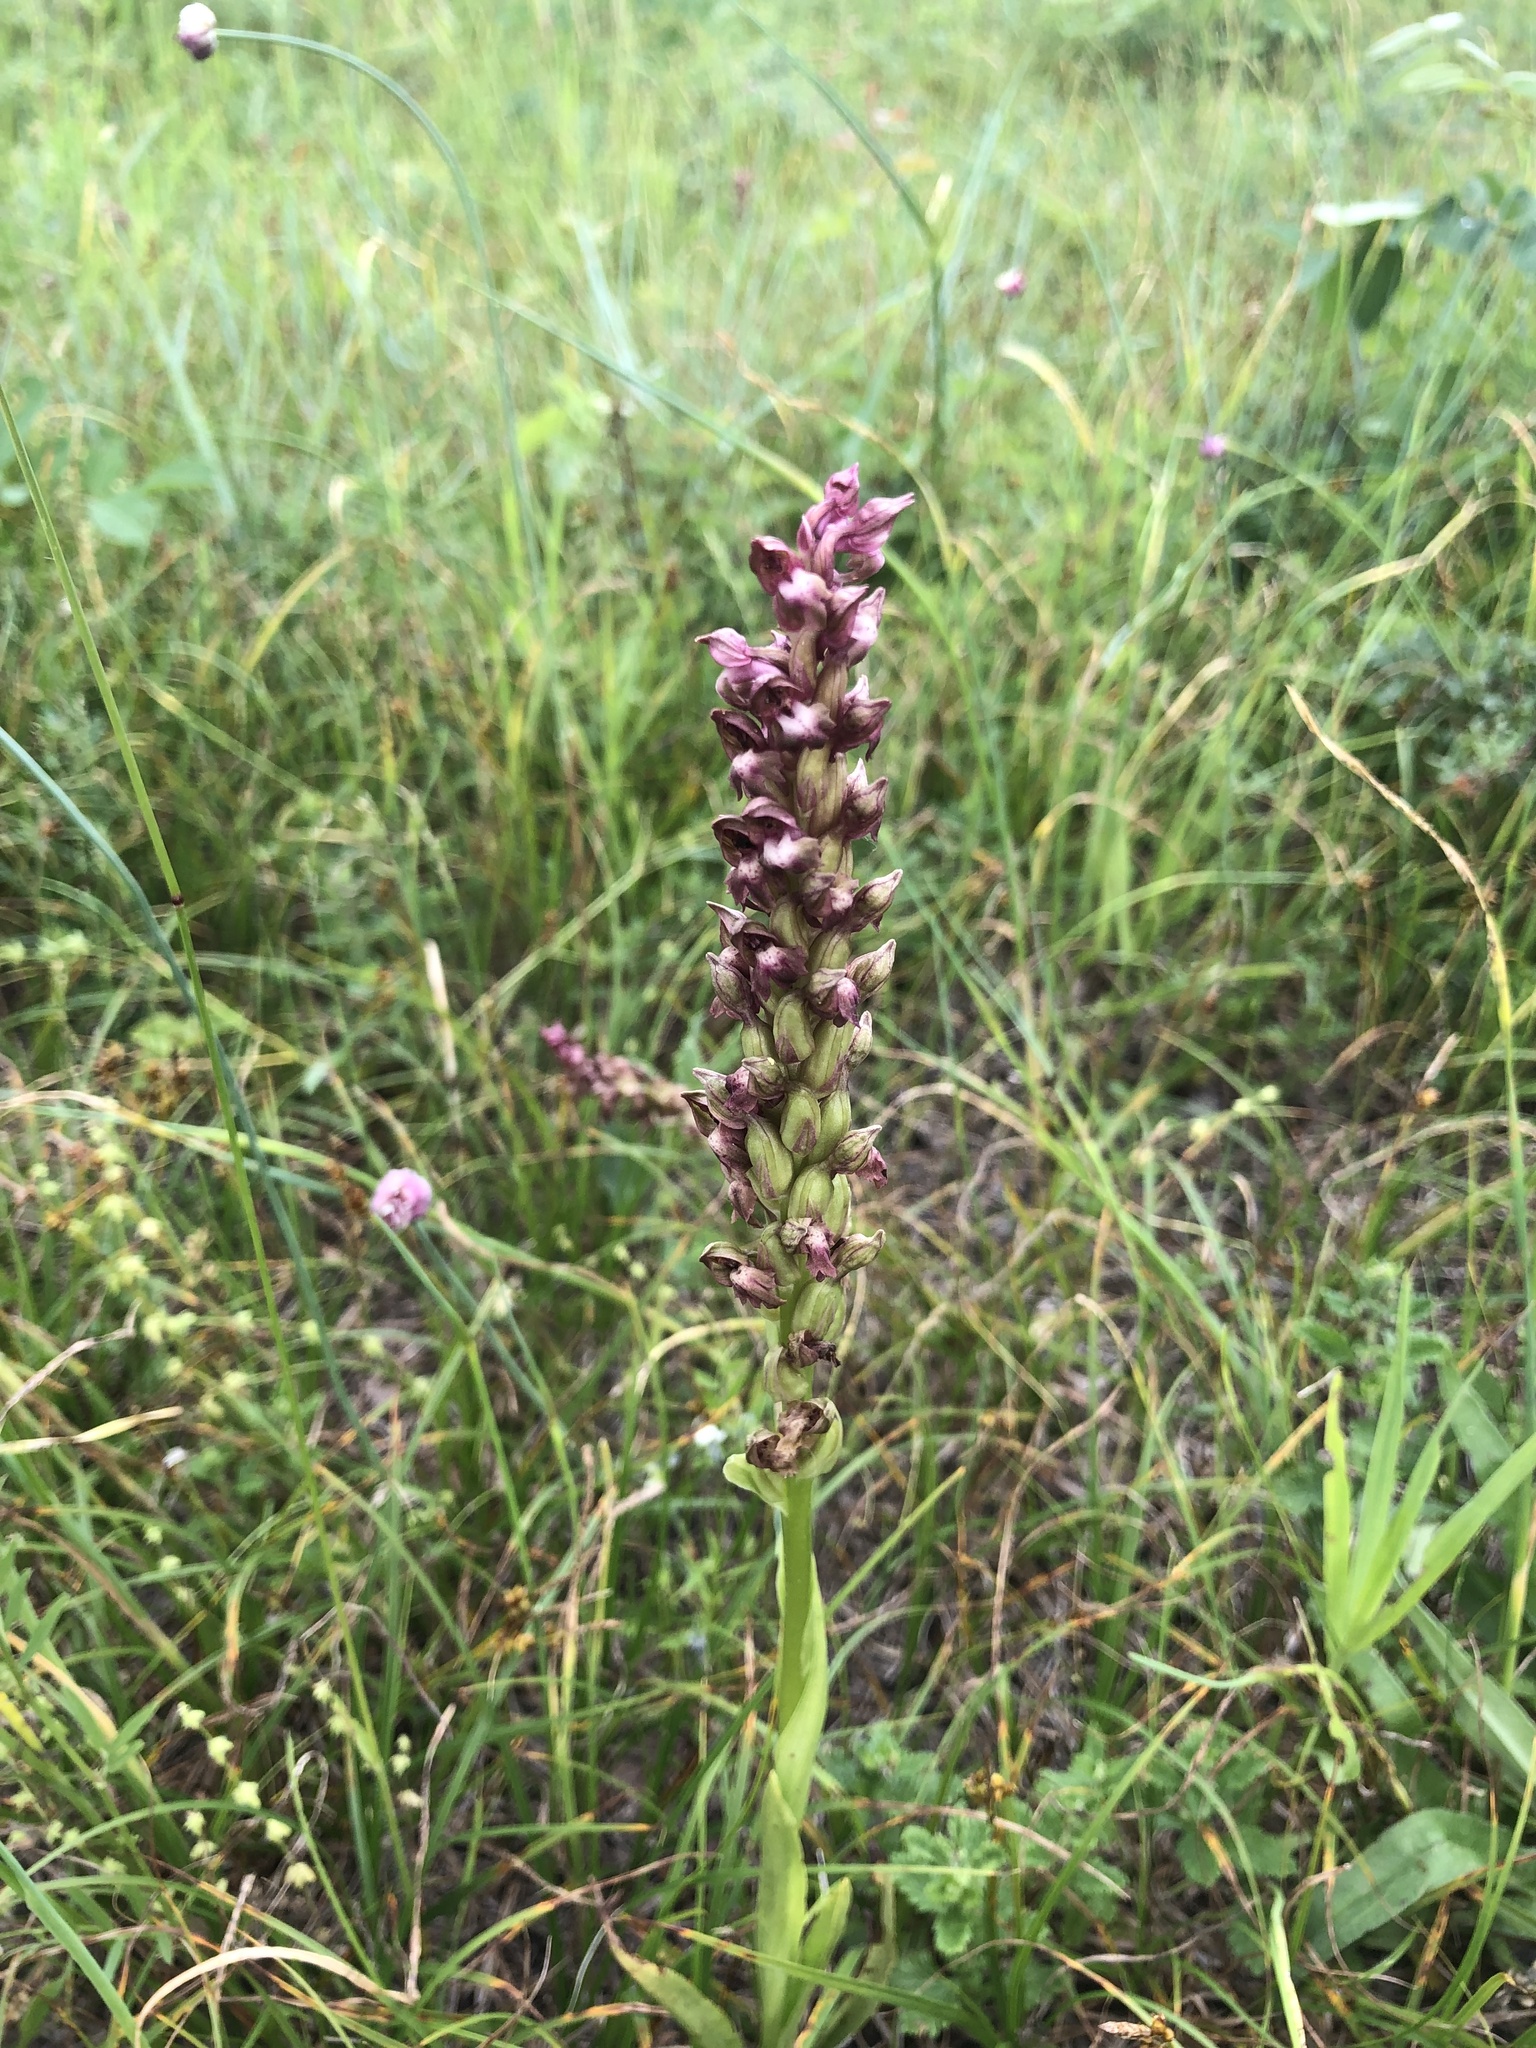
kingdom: Plantae
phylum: Tracheophyta
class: Liliopsida
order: Asparagales
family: Orchidaceae
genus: Anacamptis
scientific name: Anacamptis coriophora
